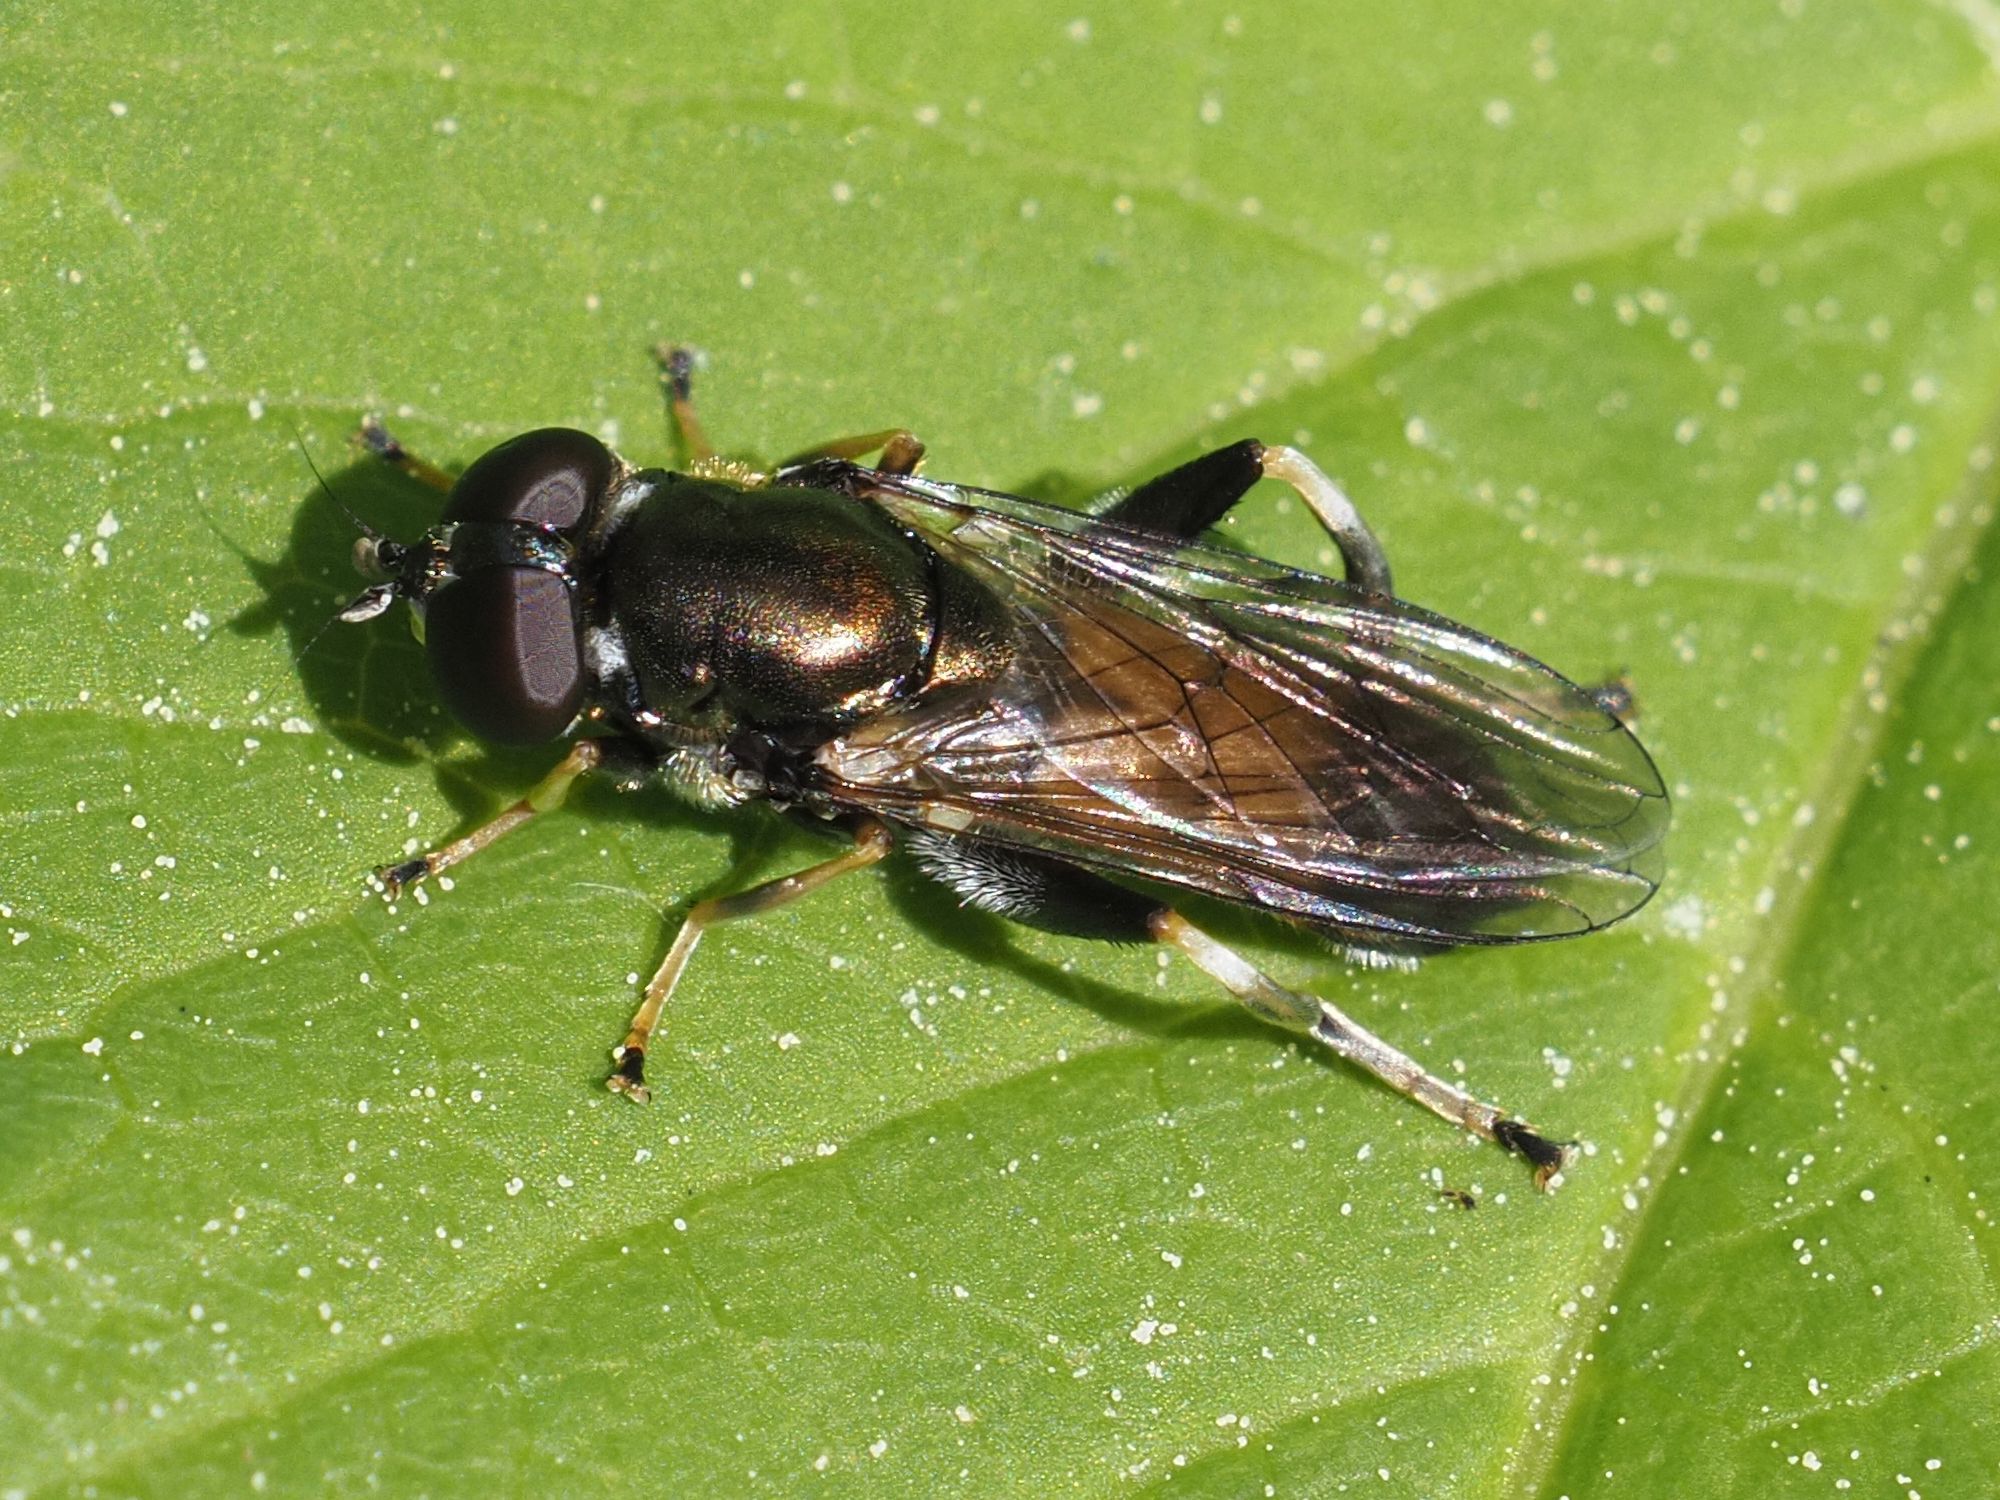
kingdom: Animalia
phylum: Arthropoda
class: Insecta
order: Diptera
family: Syrphidae
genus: Xylota
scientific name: Xylota segnis
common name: Brown-toed forest fly
